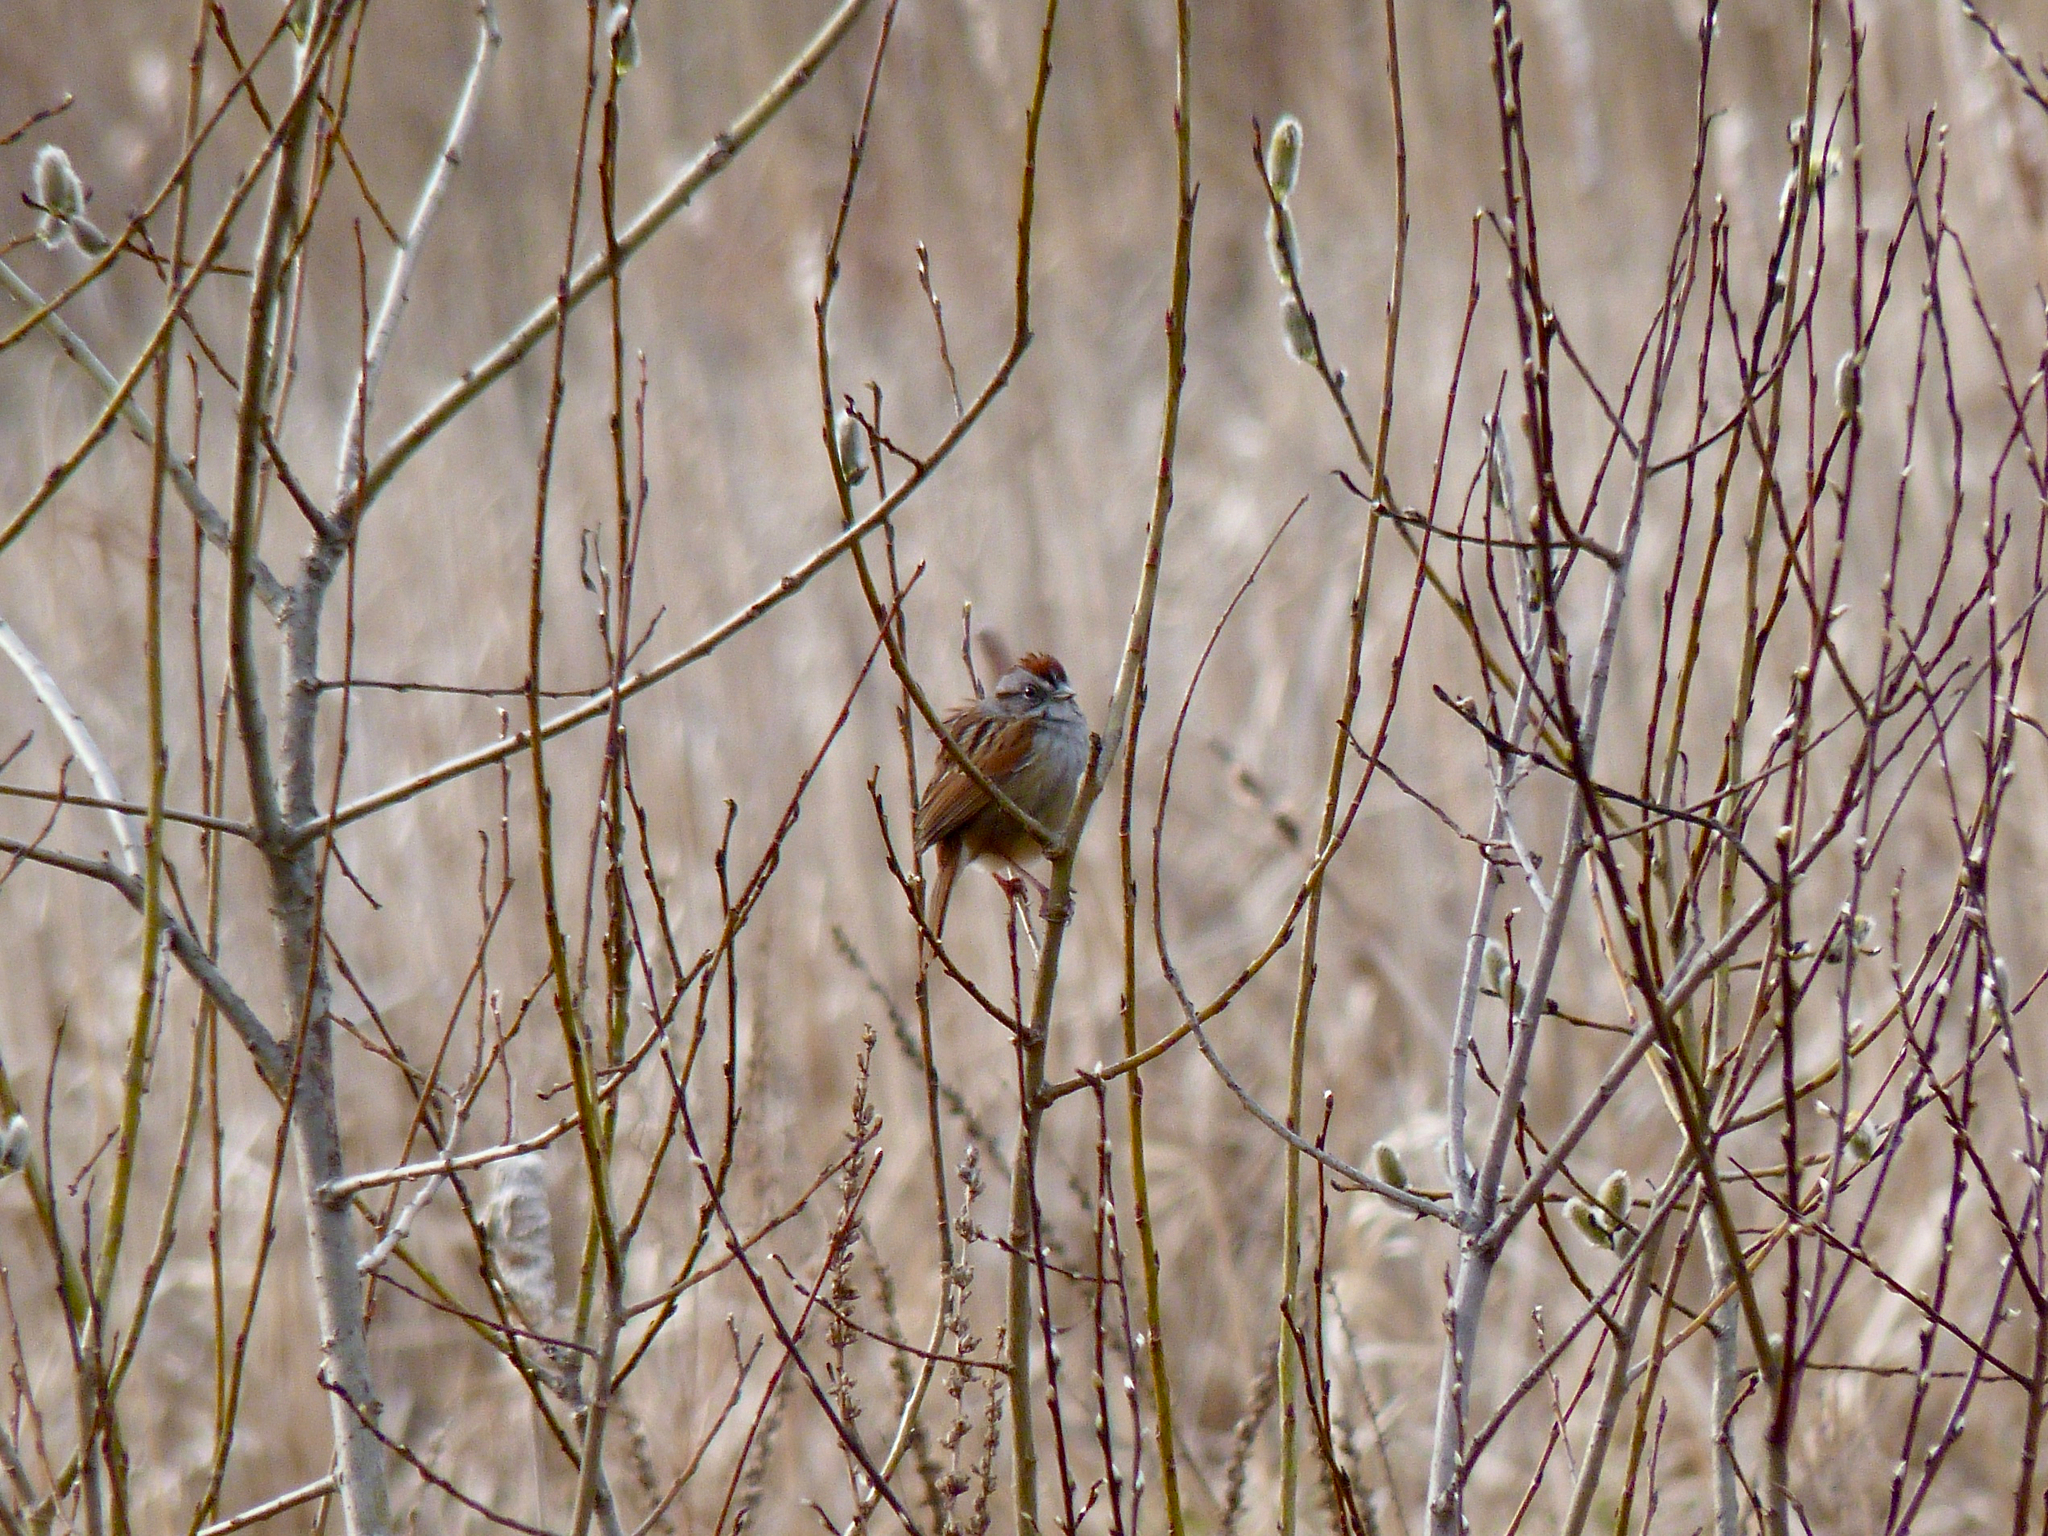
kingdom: Animalia
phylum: Chordata
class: Aves
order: Passeriformes
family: Passerellidae
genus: Melospiza
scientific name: Melospiza georgiana
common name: Swamp sparrow
